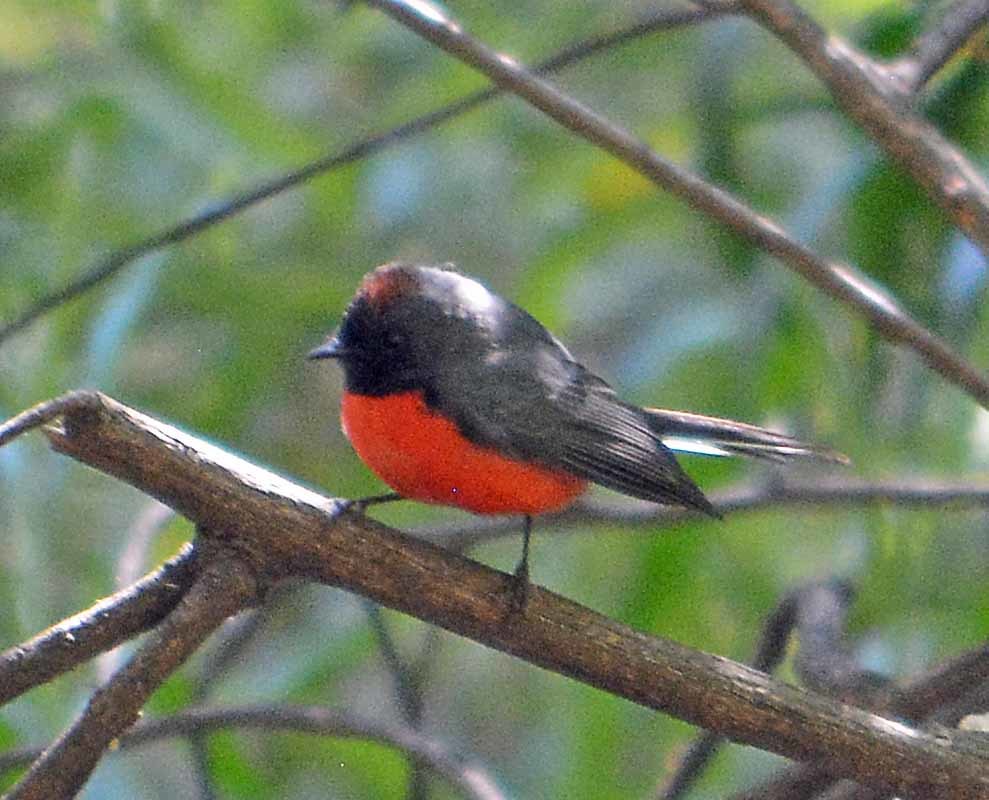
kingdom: Animalia
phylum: Chordata
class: Aves
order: Passeriformes
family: Parulidae
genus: Myioborus
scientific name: Myioborus miniatus
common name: Slate-throated redstart
